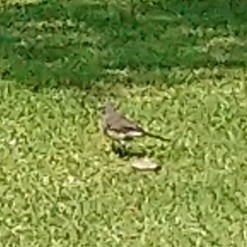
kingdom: Animalia
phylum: Chordata
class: Aves
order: Passeriformes
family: Motacillidae
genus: Motacilla
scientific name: Motacilla capensis
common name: Cape wagtail
